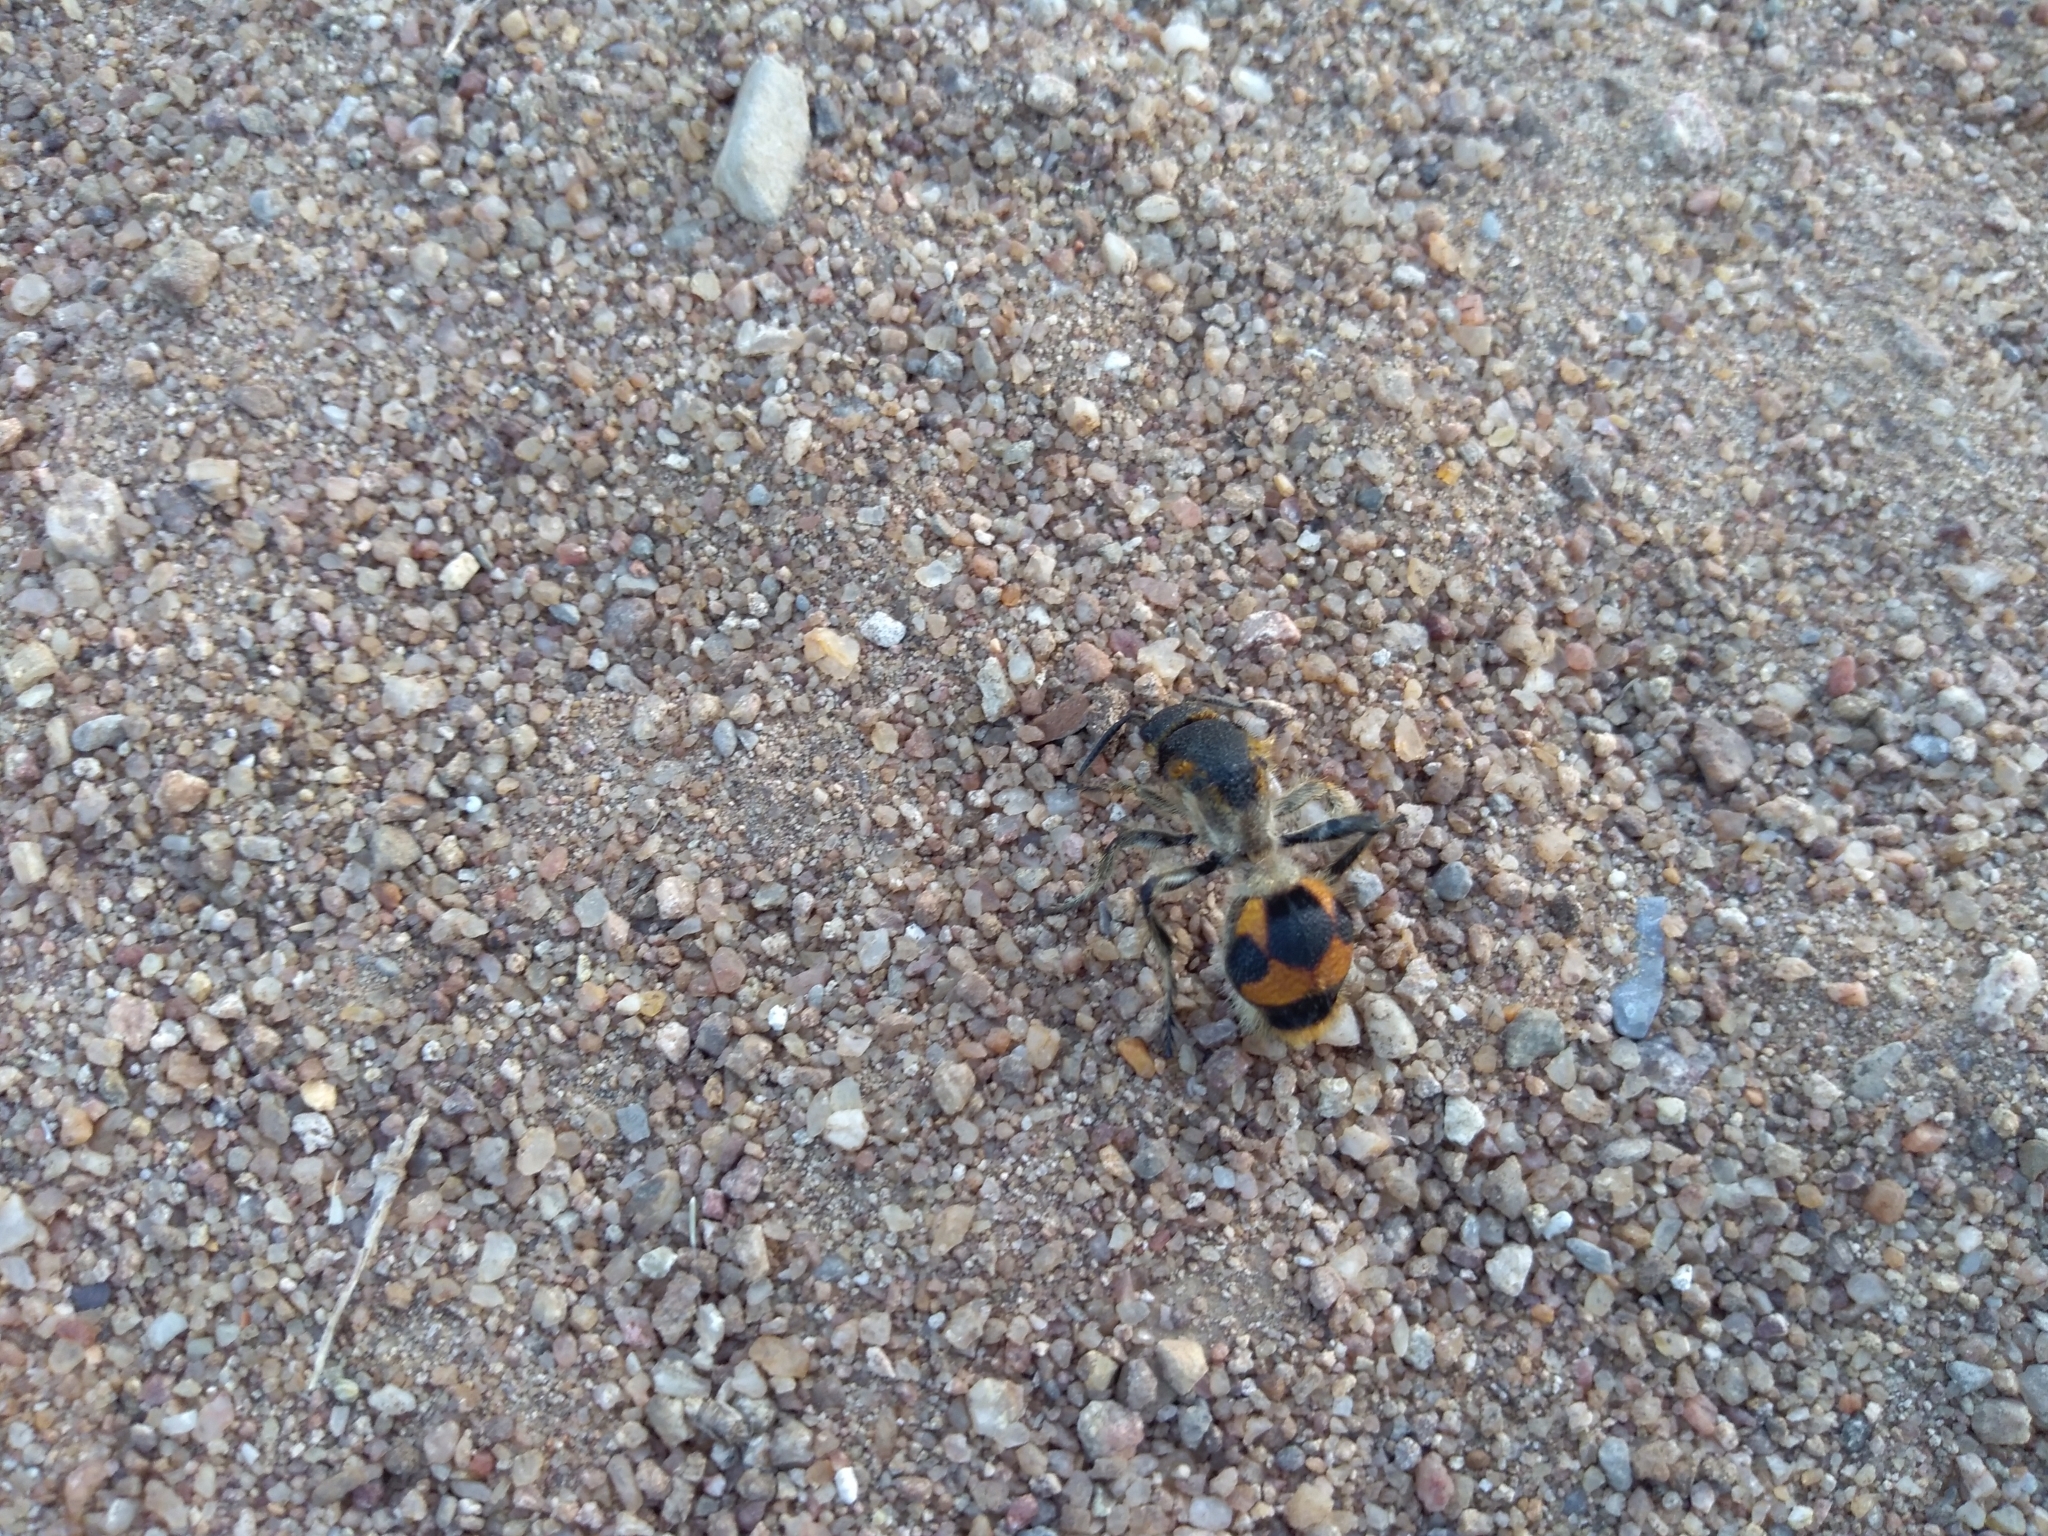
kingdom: Animalia
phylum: Arthropoda
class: Insecta
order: Hymenoptera
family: Mutillidae
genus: Dasymutilla
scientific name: Dasymutilla pulchra
